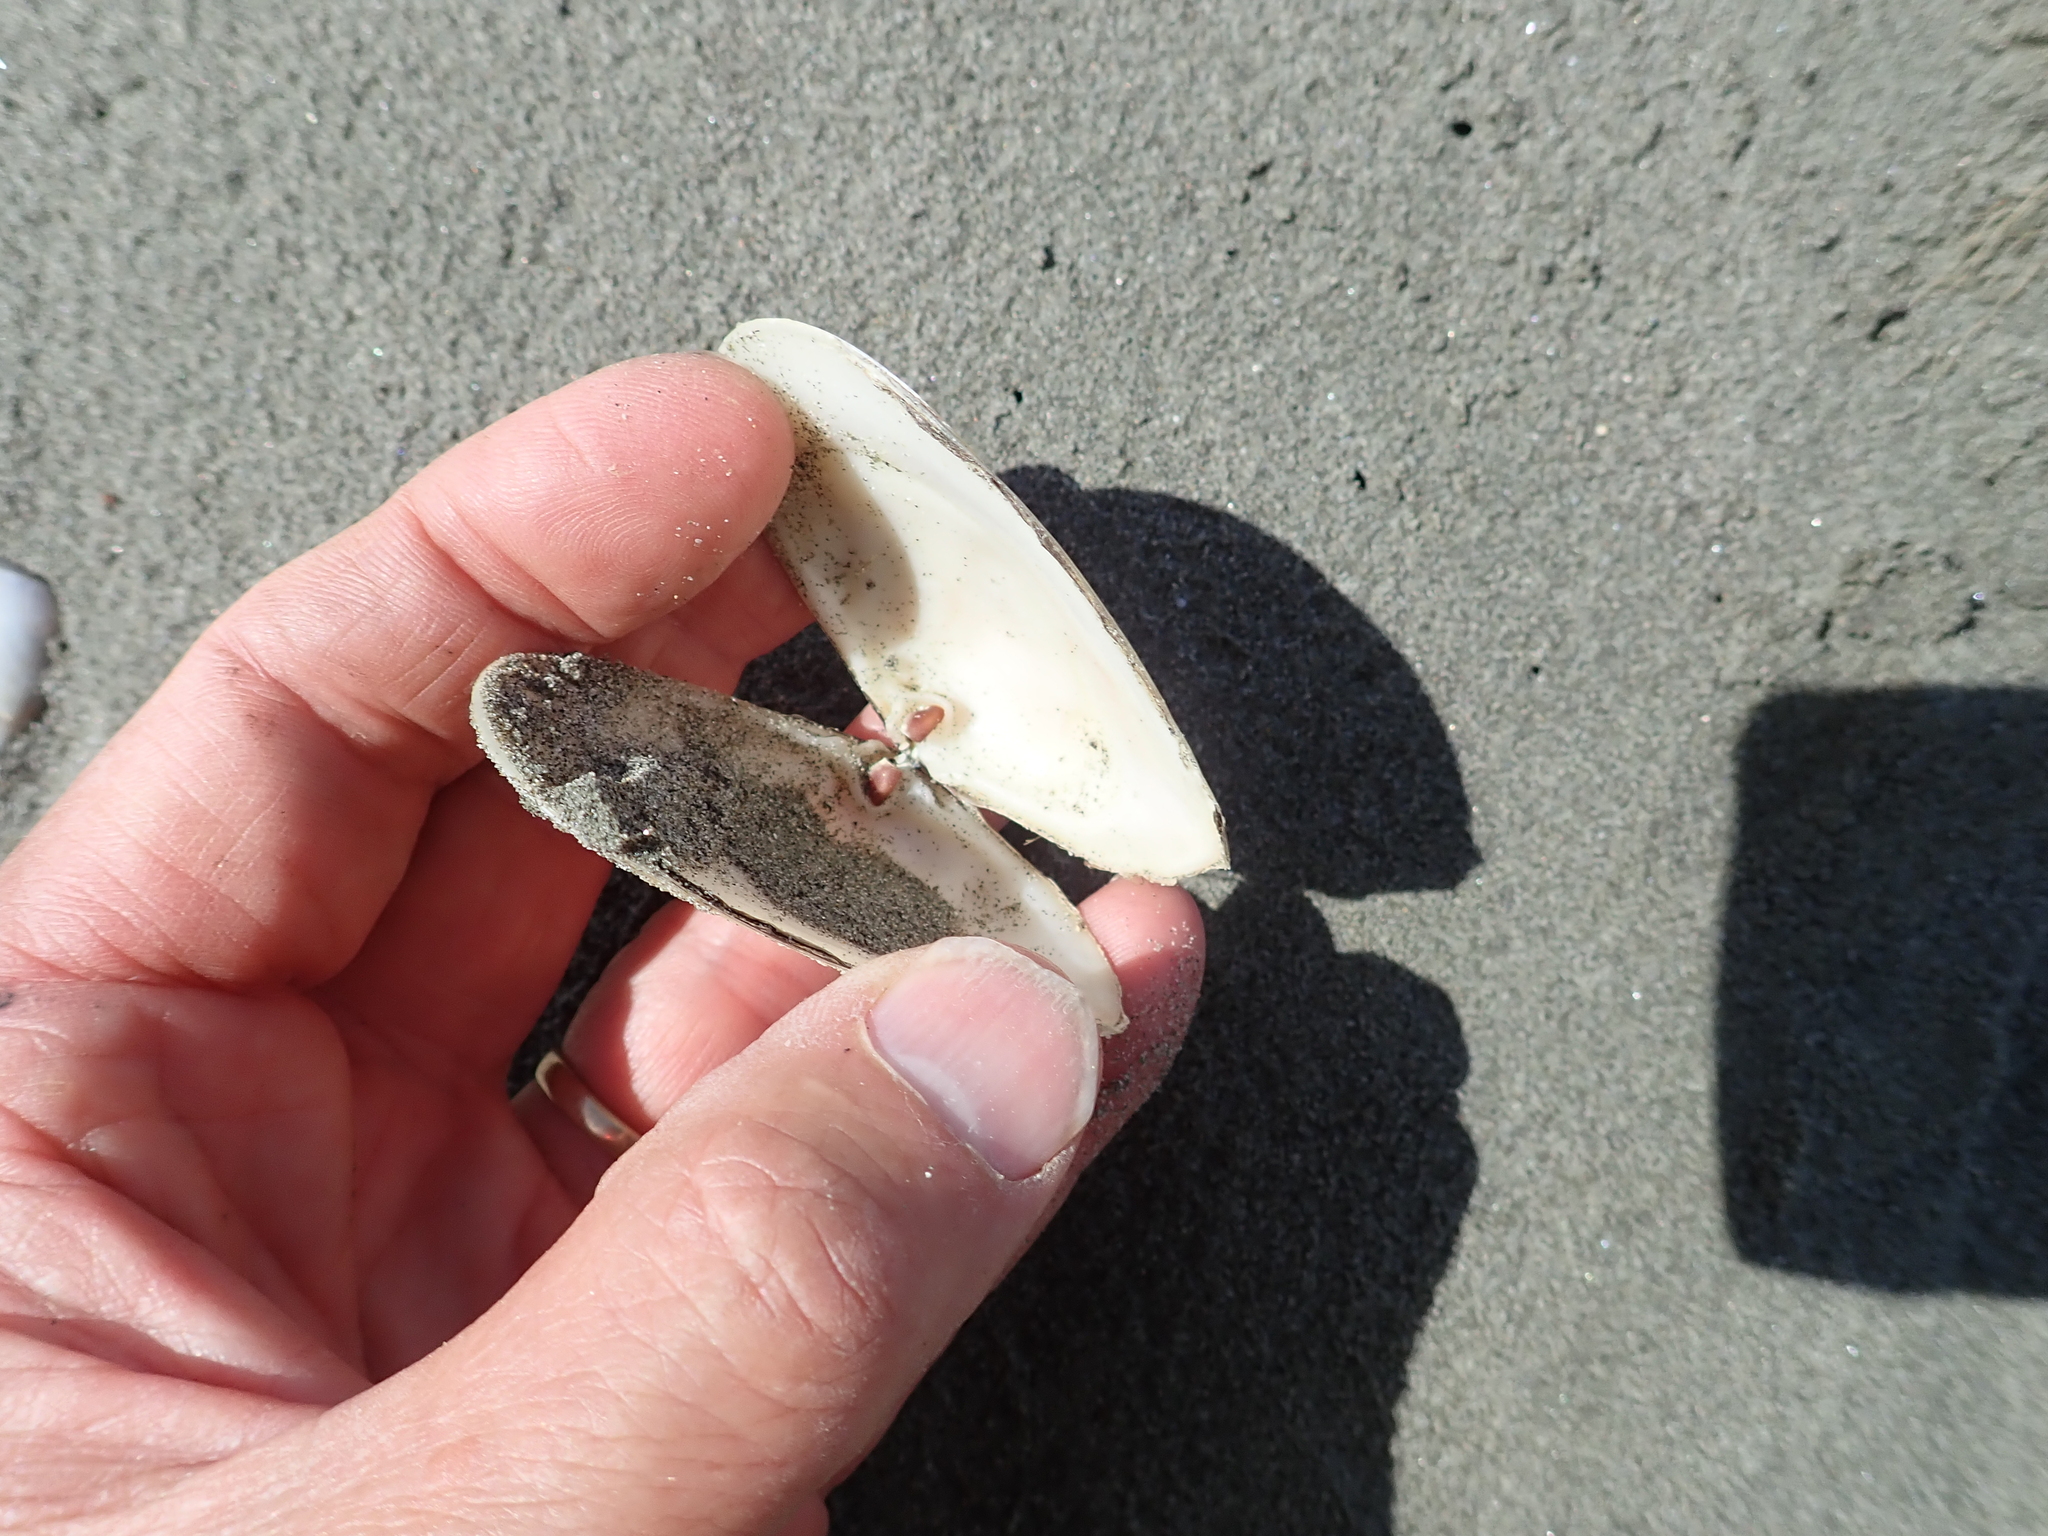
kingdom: Animalia
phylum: Mollusca
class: Bivalvia
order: Venerida
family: Mesodesmatidae
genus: Paphies
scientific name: Paphies donacina
